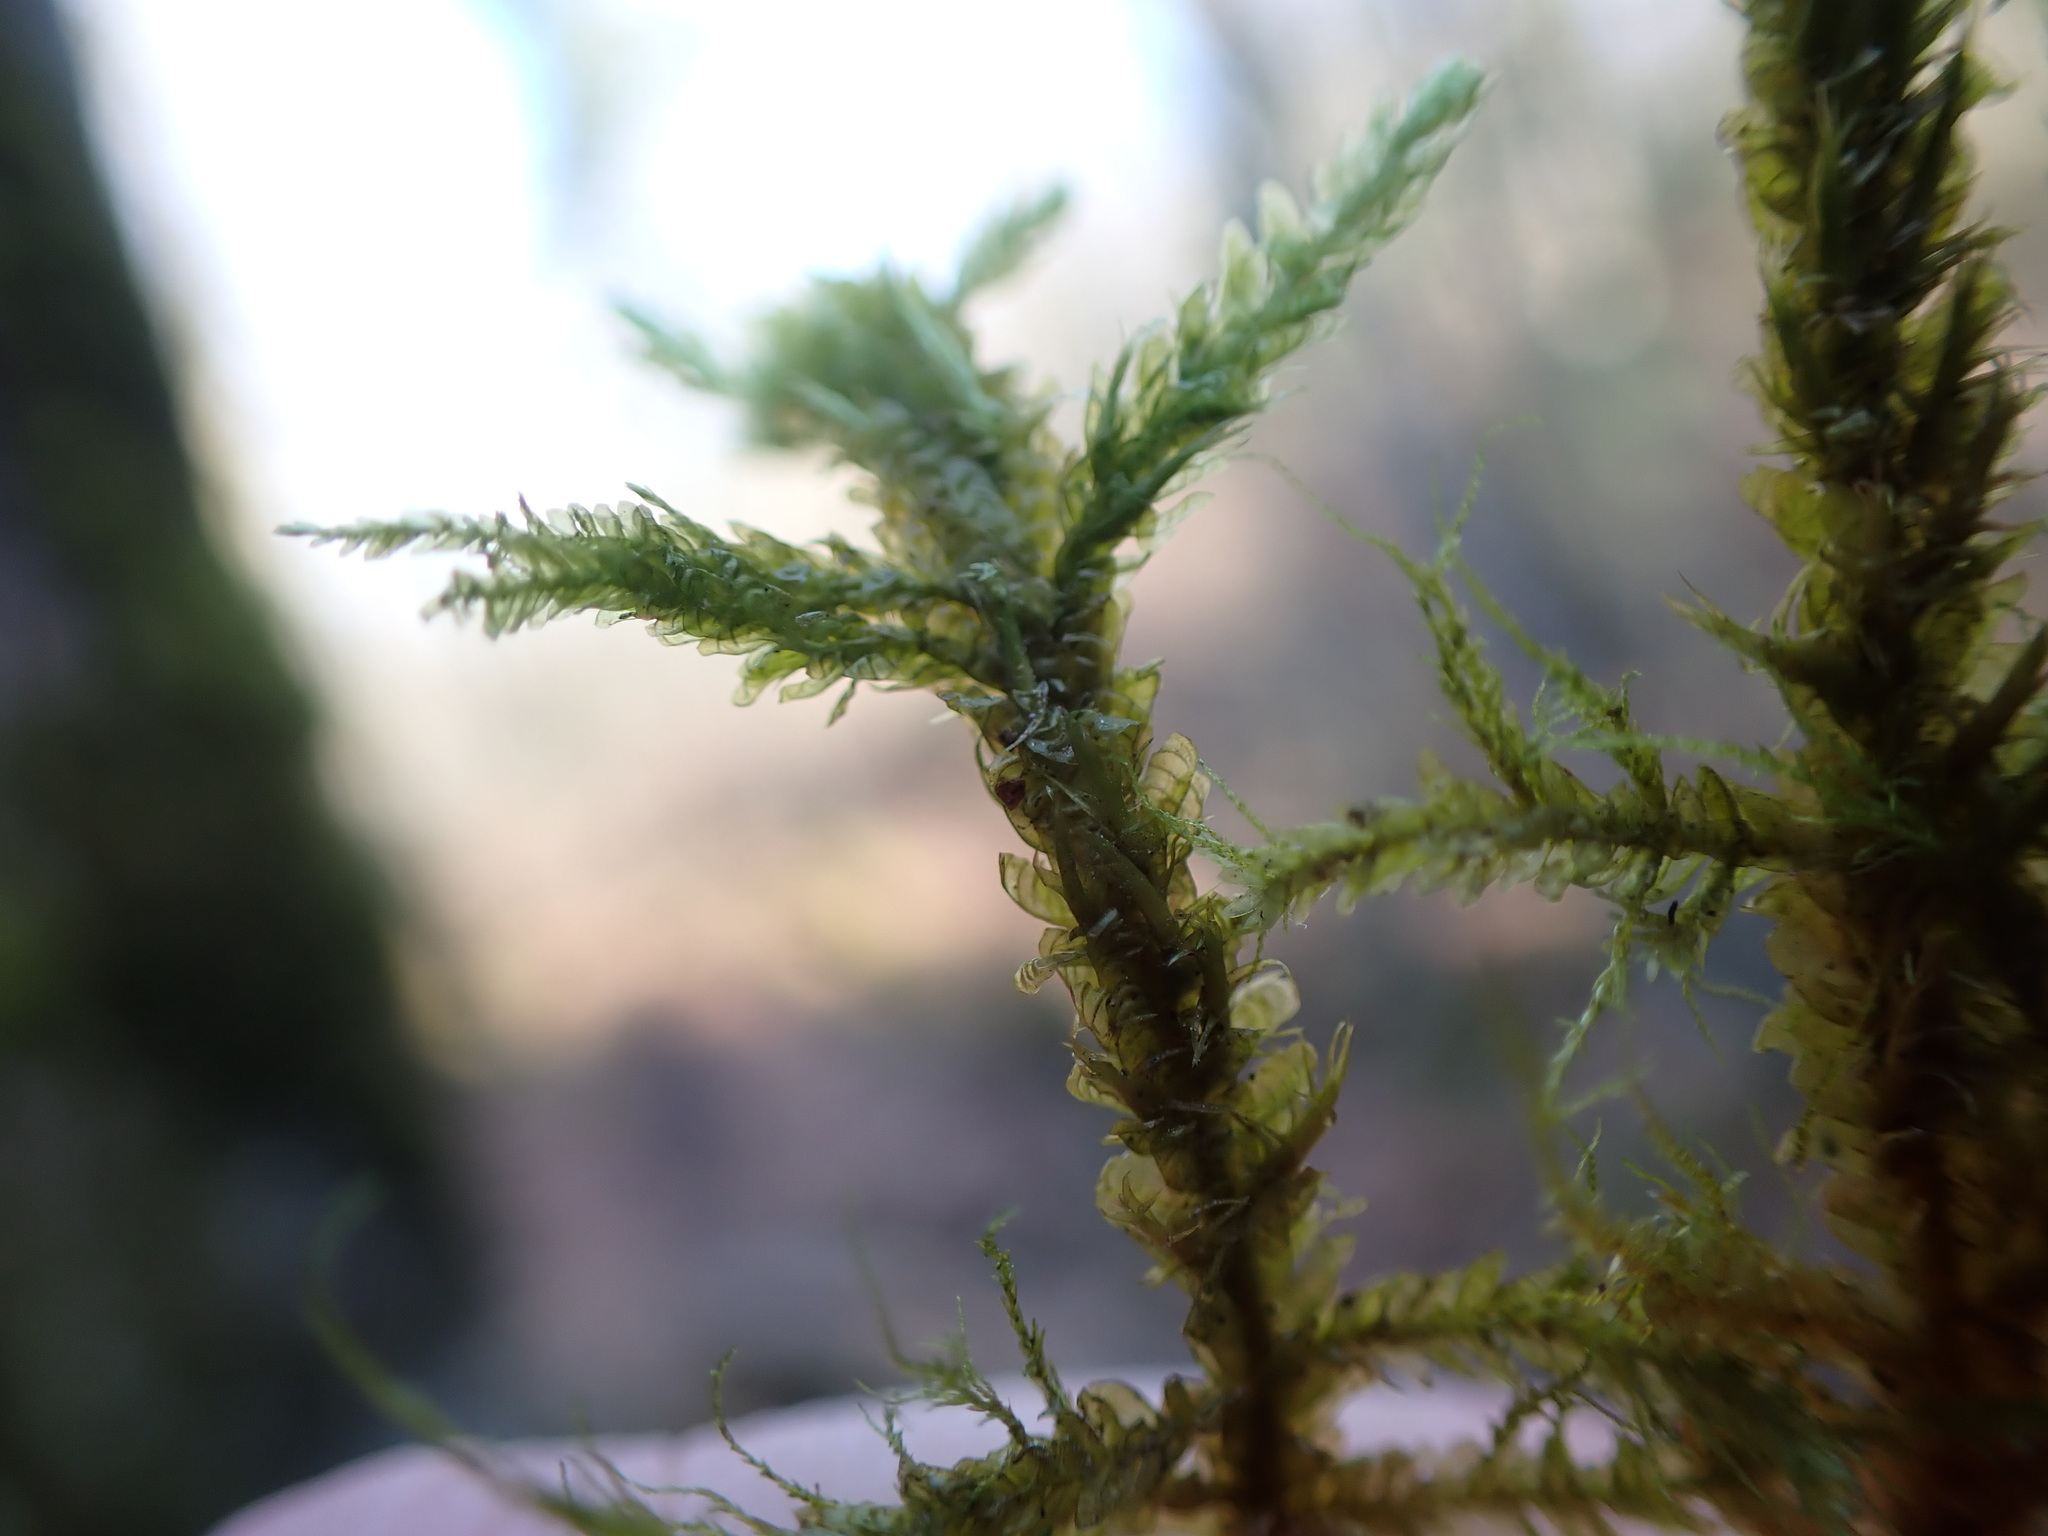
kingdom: Plantae
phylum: Bryophyta
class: Bryopsida
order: Hypnales
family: Neckeraceae
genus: Metaneckera
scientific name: Metaneckera menziesii
